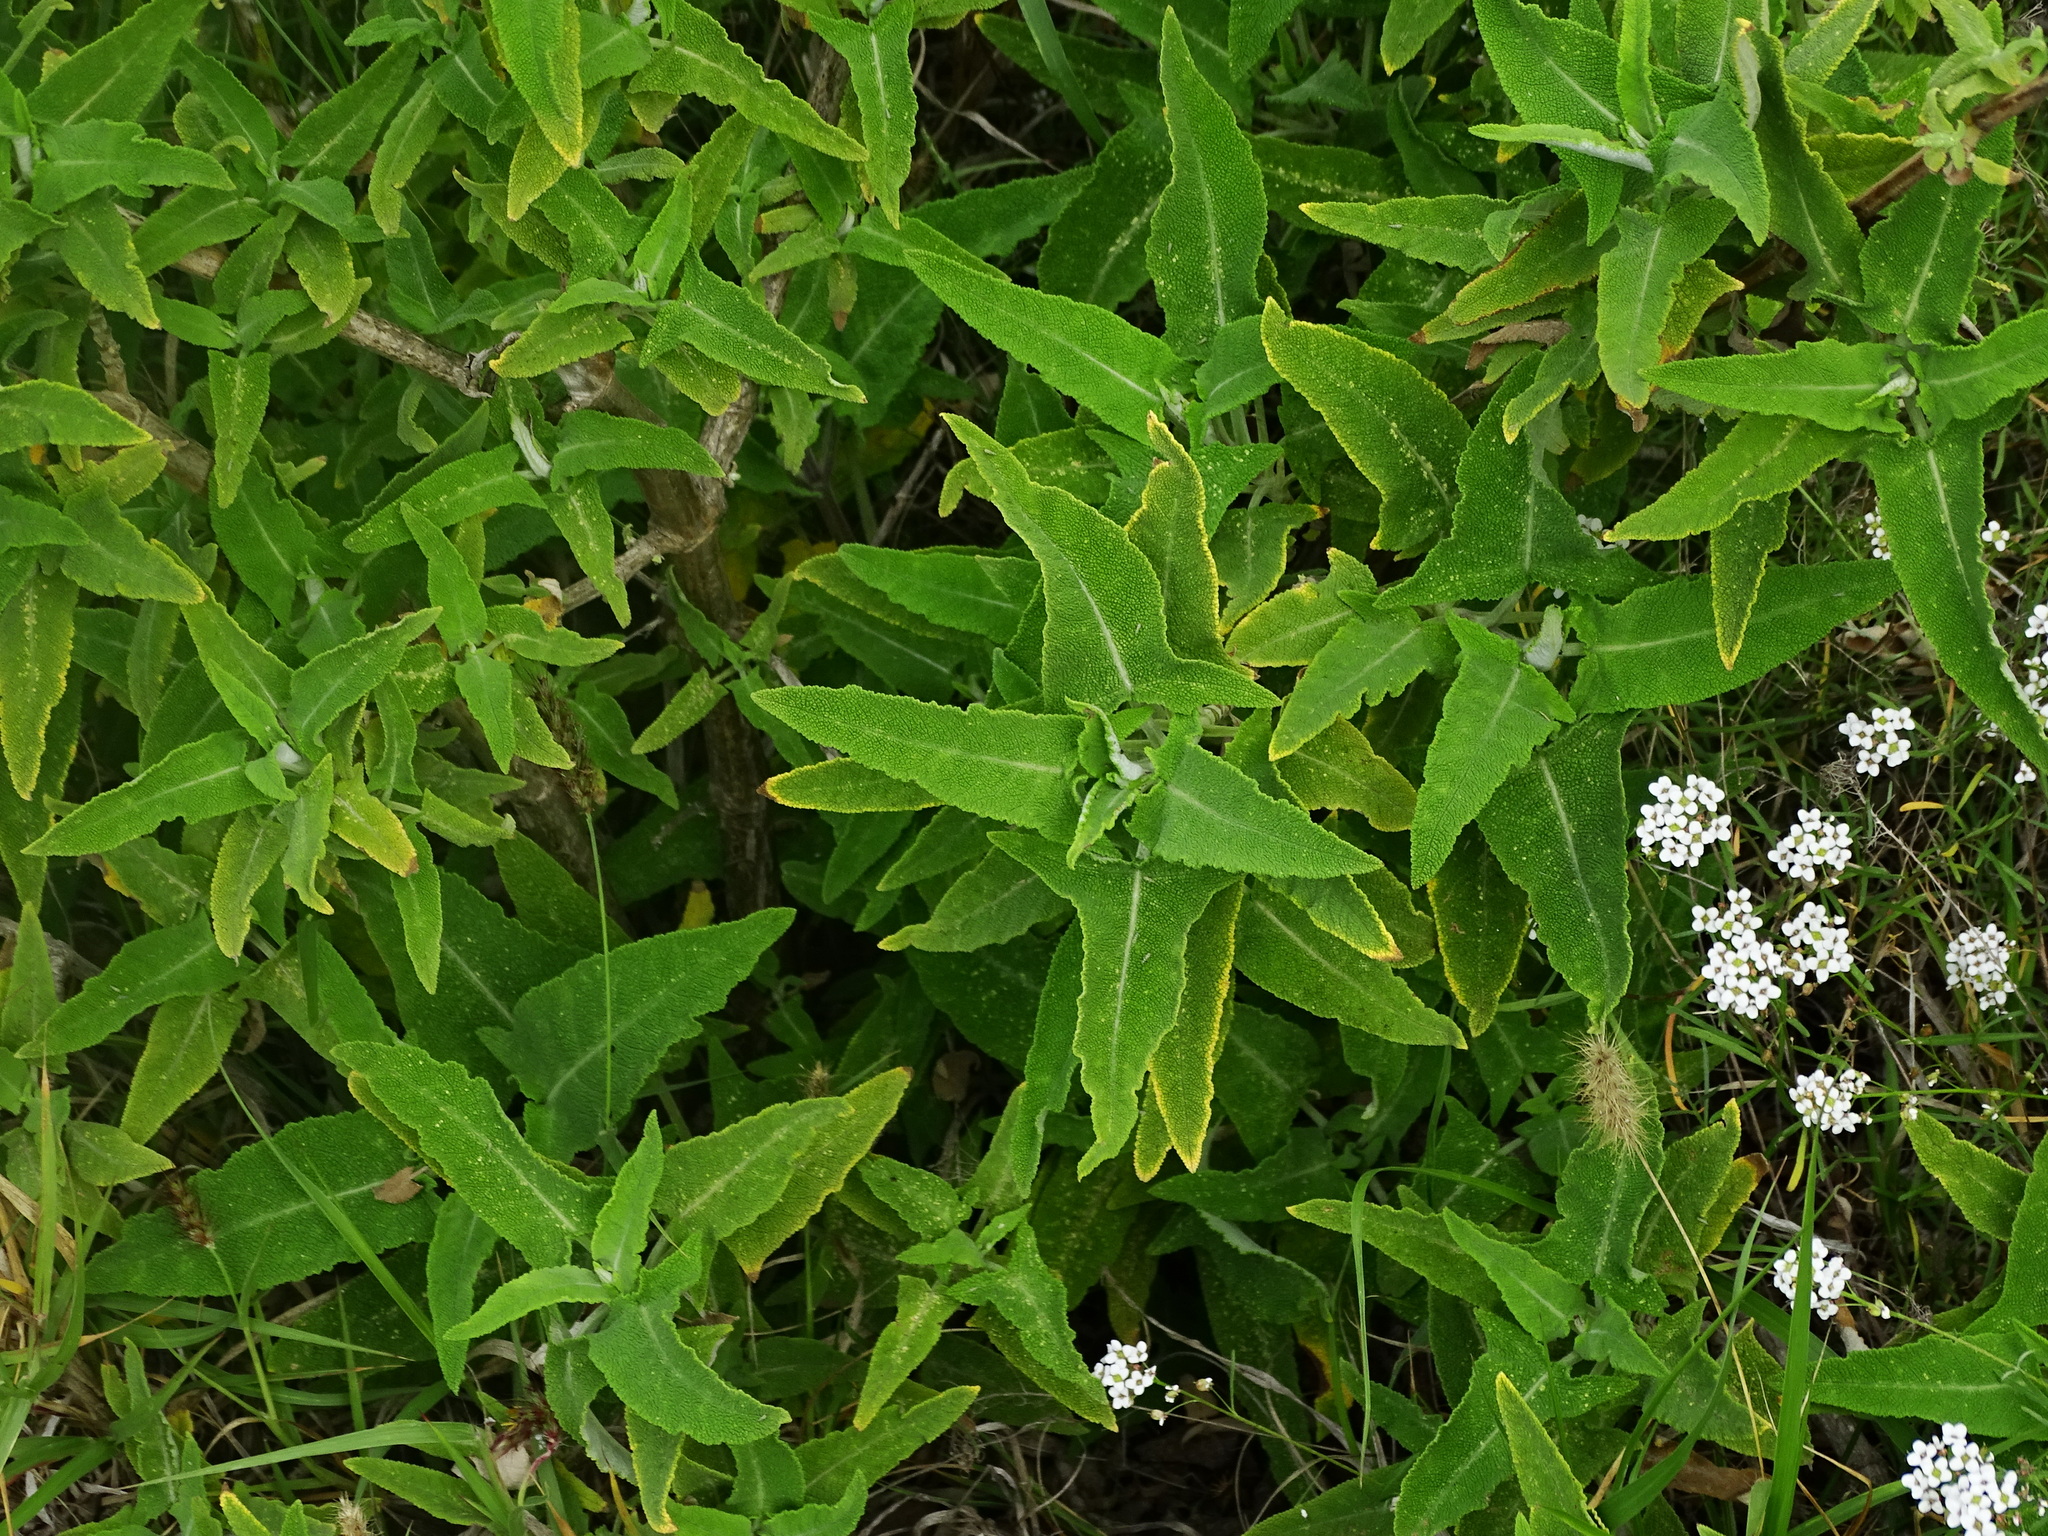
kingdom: Plantae
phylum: Tracheophyta
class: Magnoliopsida
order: Lamiales
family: Lamiaceae
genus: Salvia
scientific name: Salvia canariensis
